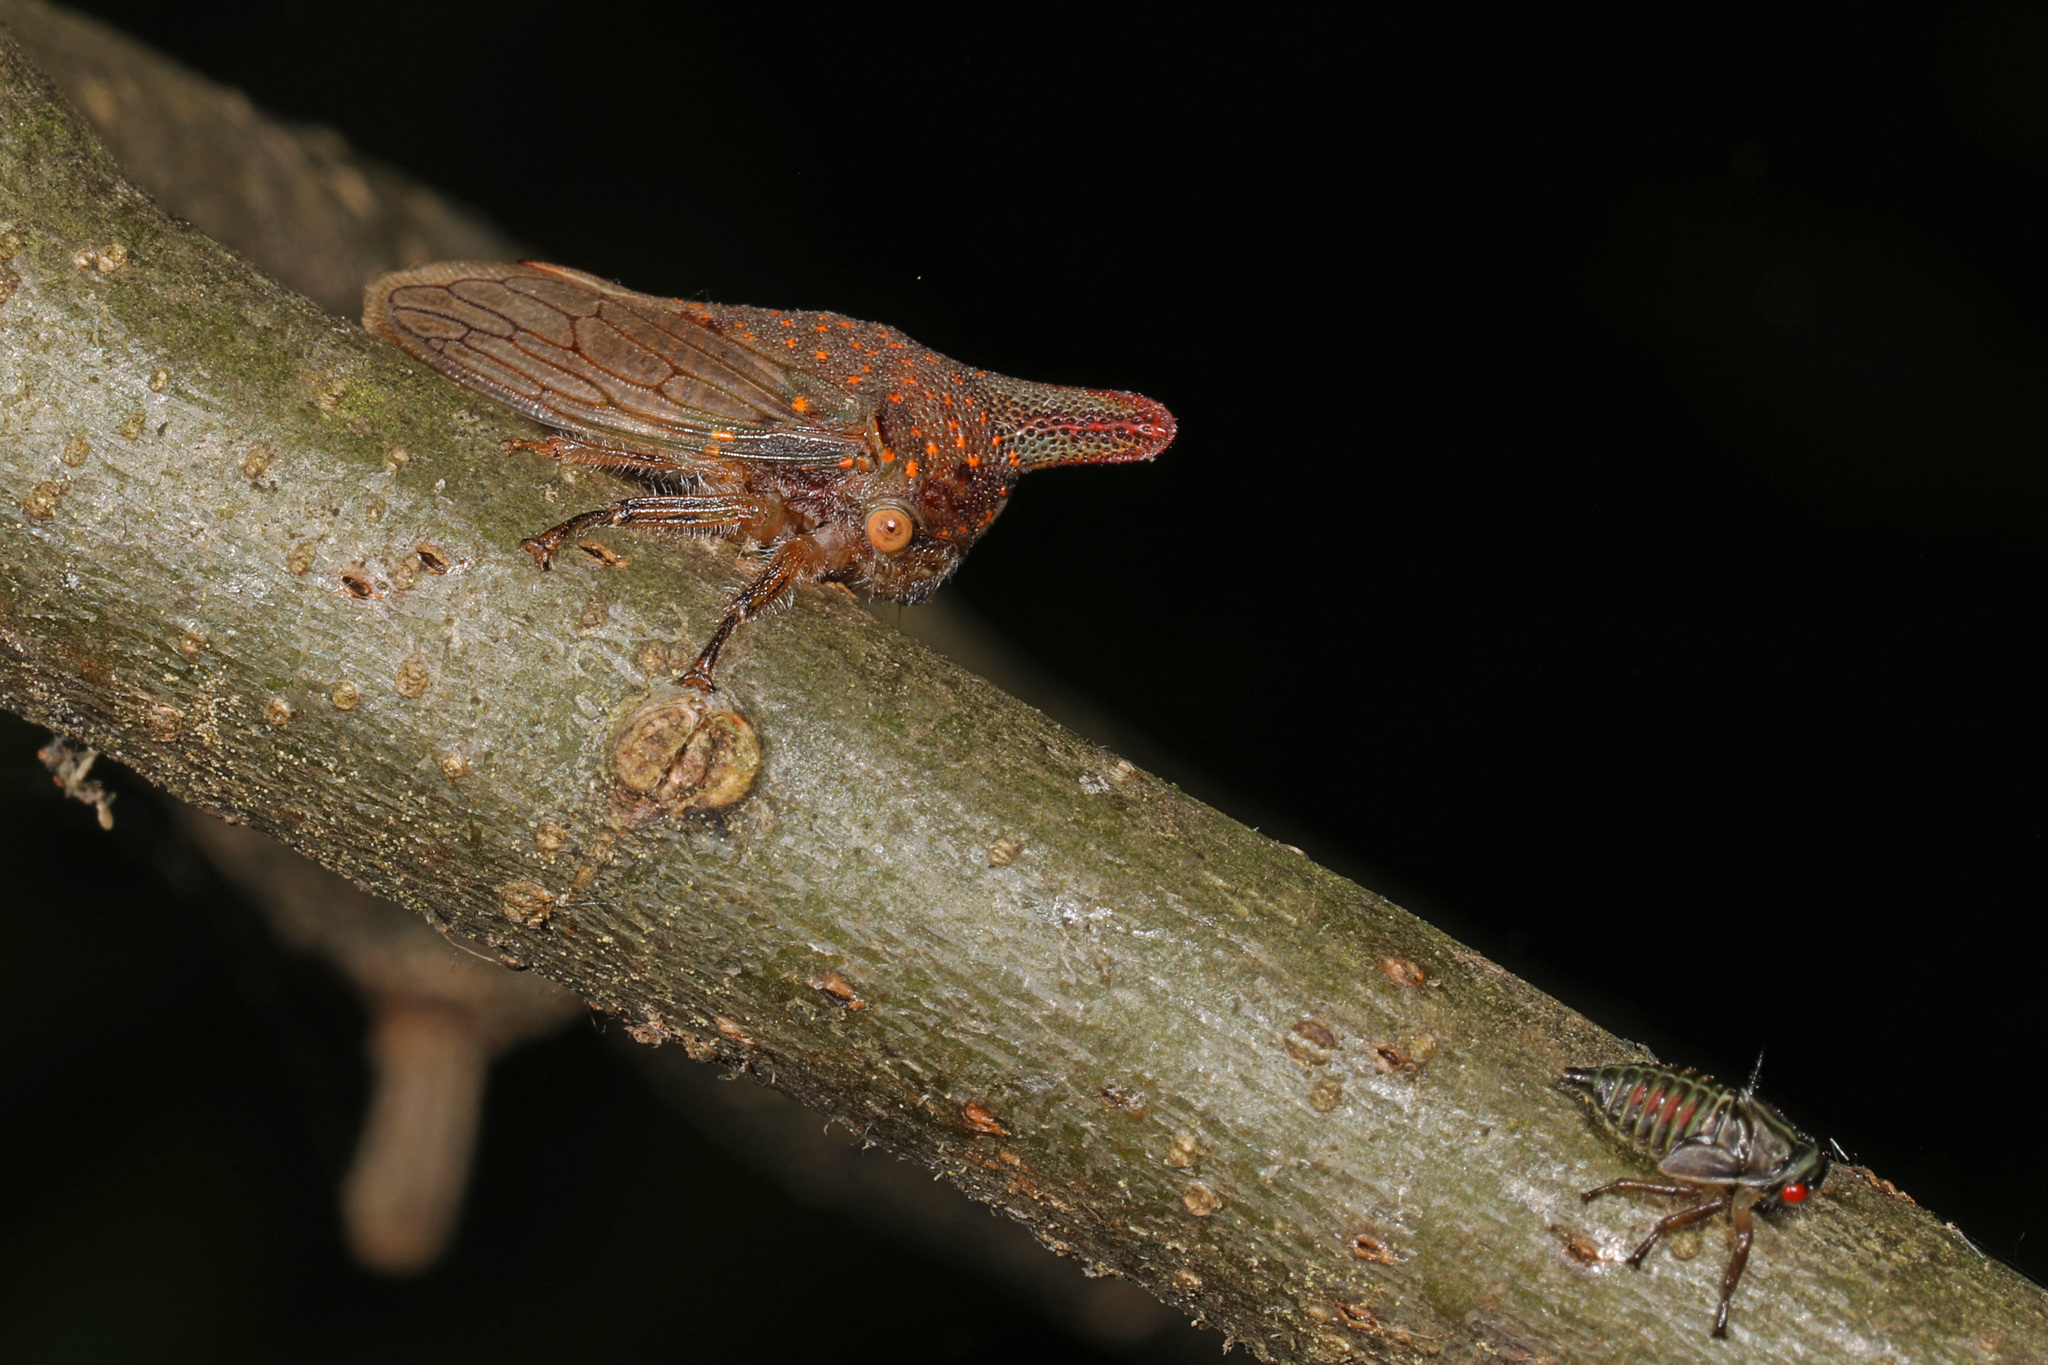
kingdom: Animalia
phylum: Arthropoda
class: Insecta
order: Hemiptera
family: Membracidae
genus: Platycotis
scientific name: Platycotis vittatus
